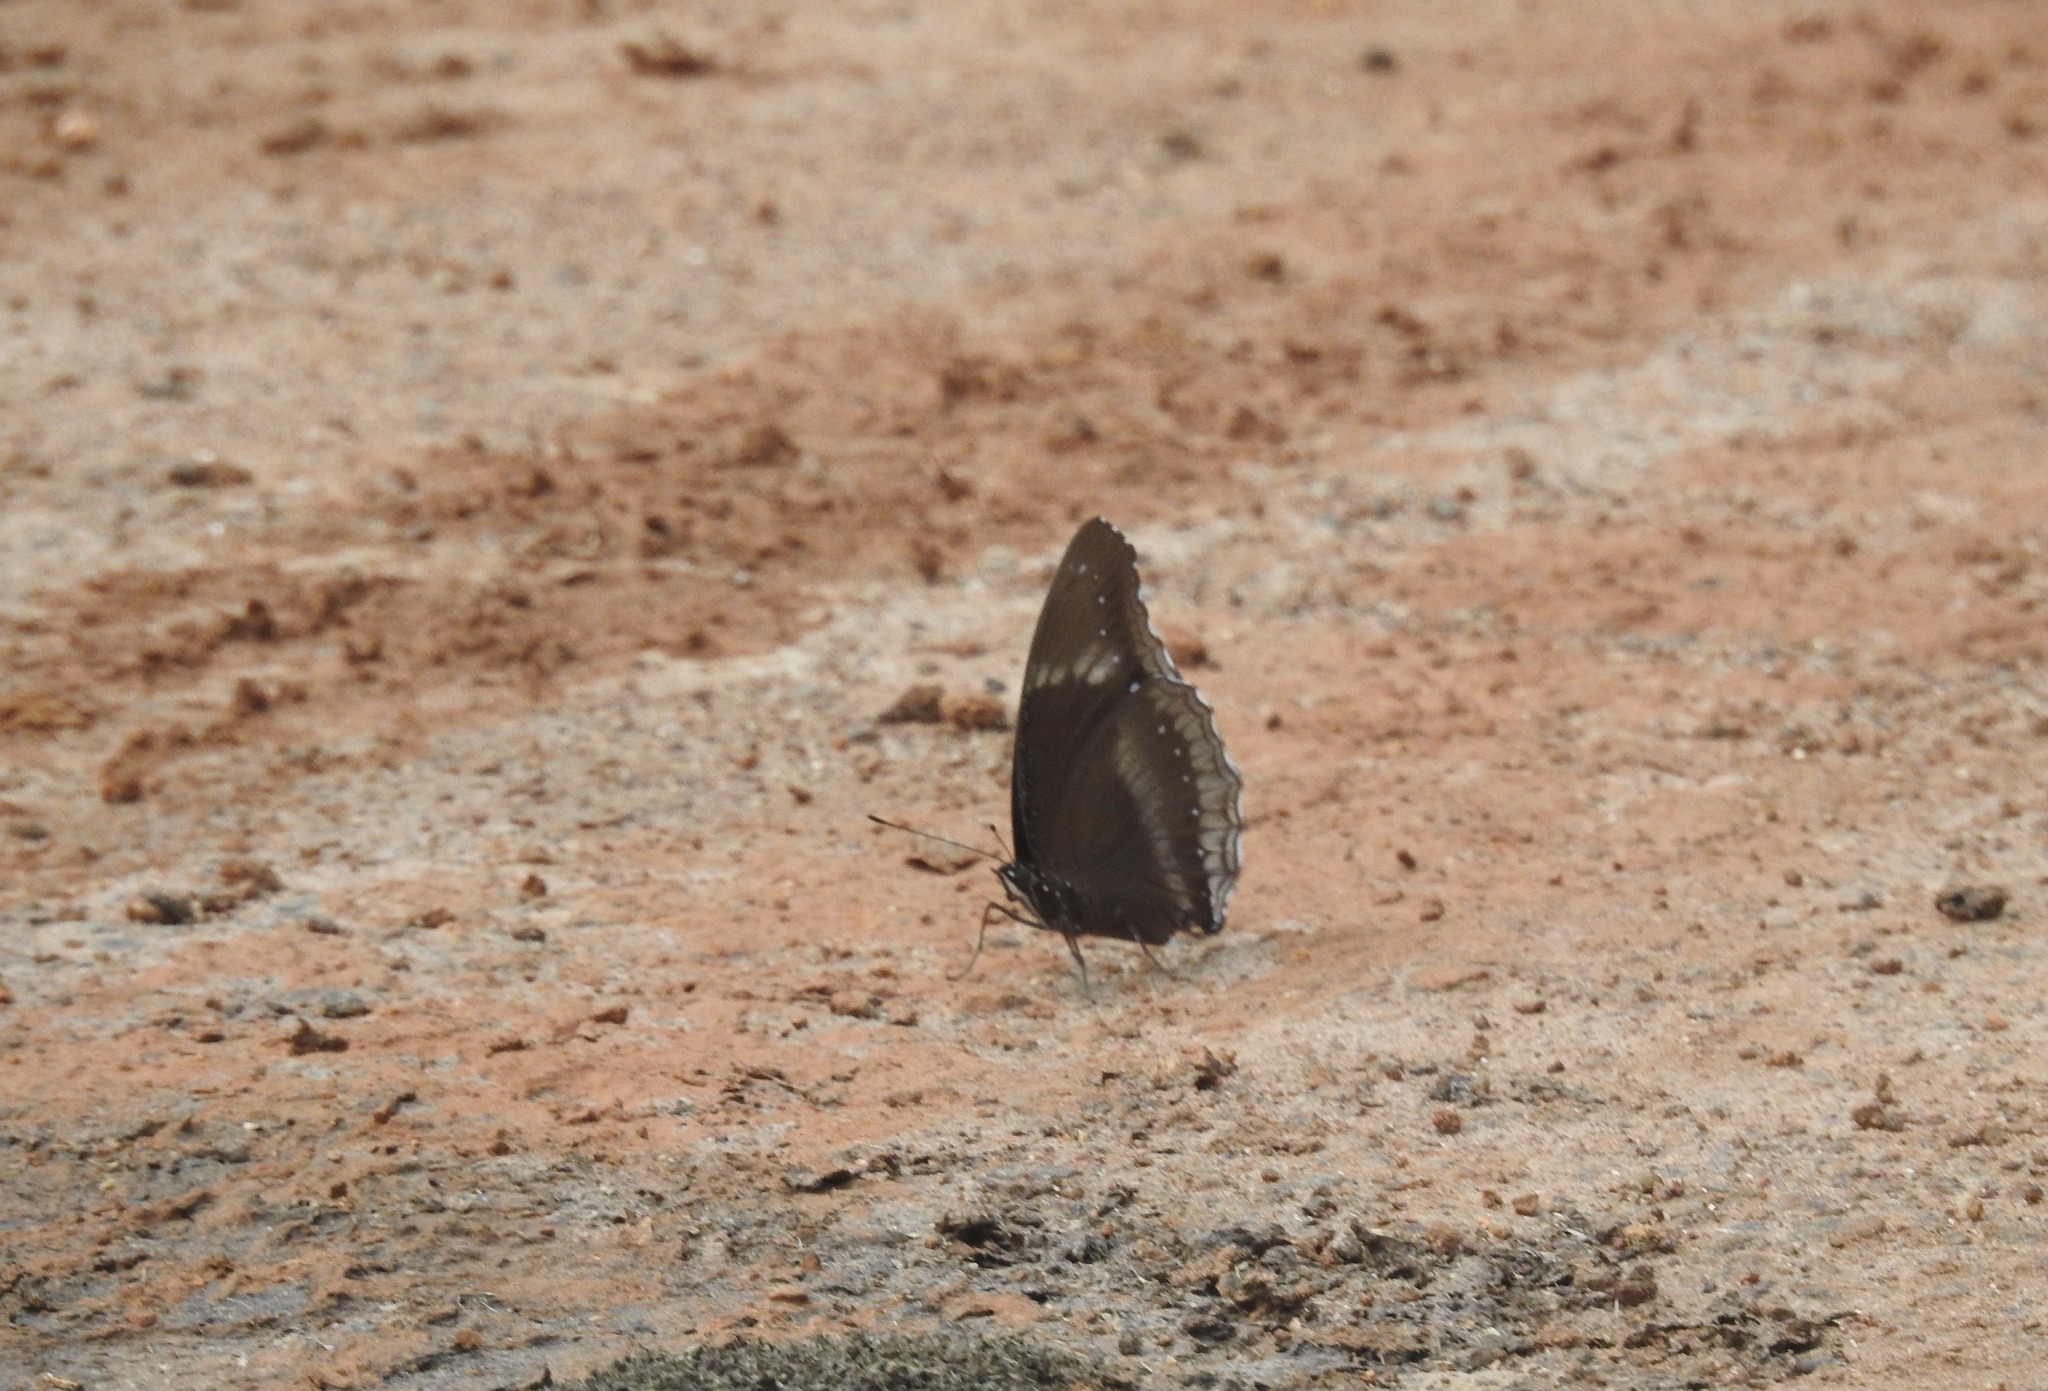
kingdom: Animalia
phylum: Arthropoda
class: Insecta
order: Lepidoptera
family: Nymphalidae
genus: Hypolimnas
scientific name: Hypolimnas bolina
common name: Great eggfly
